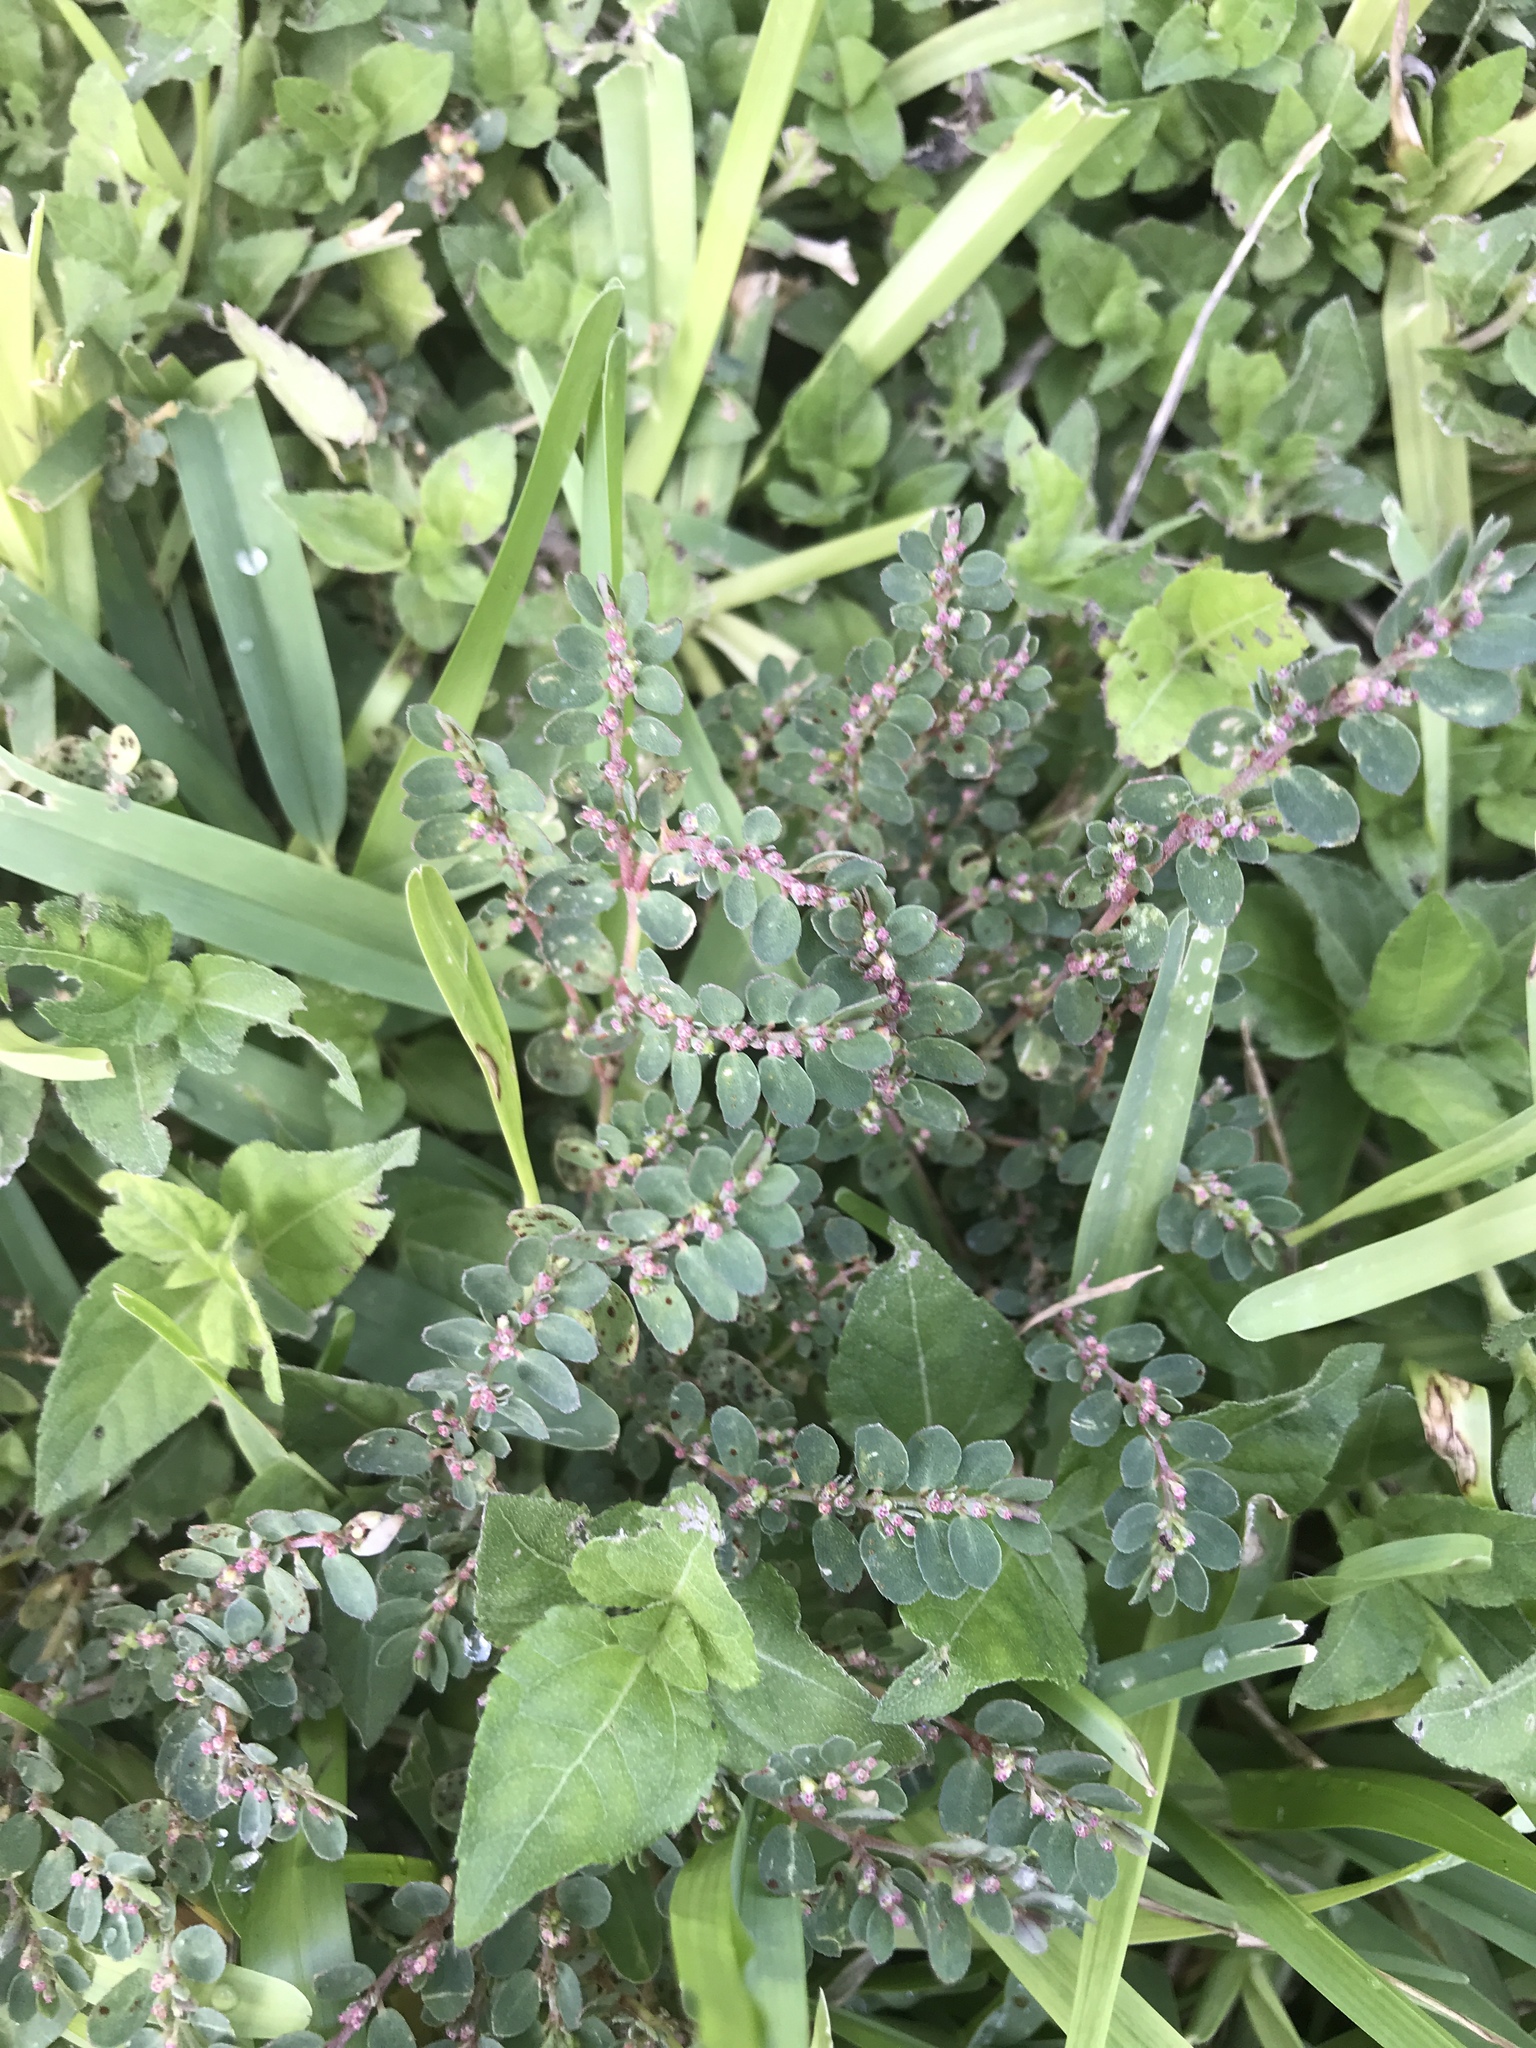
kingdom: Plantae
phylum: Tracheophyta
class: Magnoliopsida
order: Malpighiales
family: Euphorbiaceae
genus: Euphorbia
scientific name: Euphorbia prostrata
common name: Prostrate sandmat
